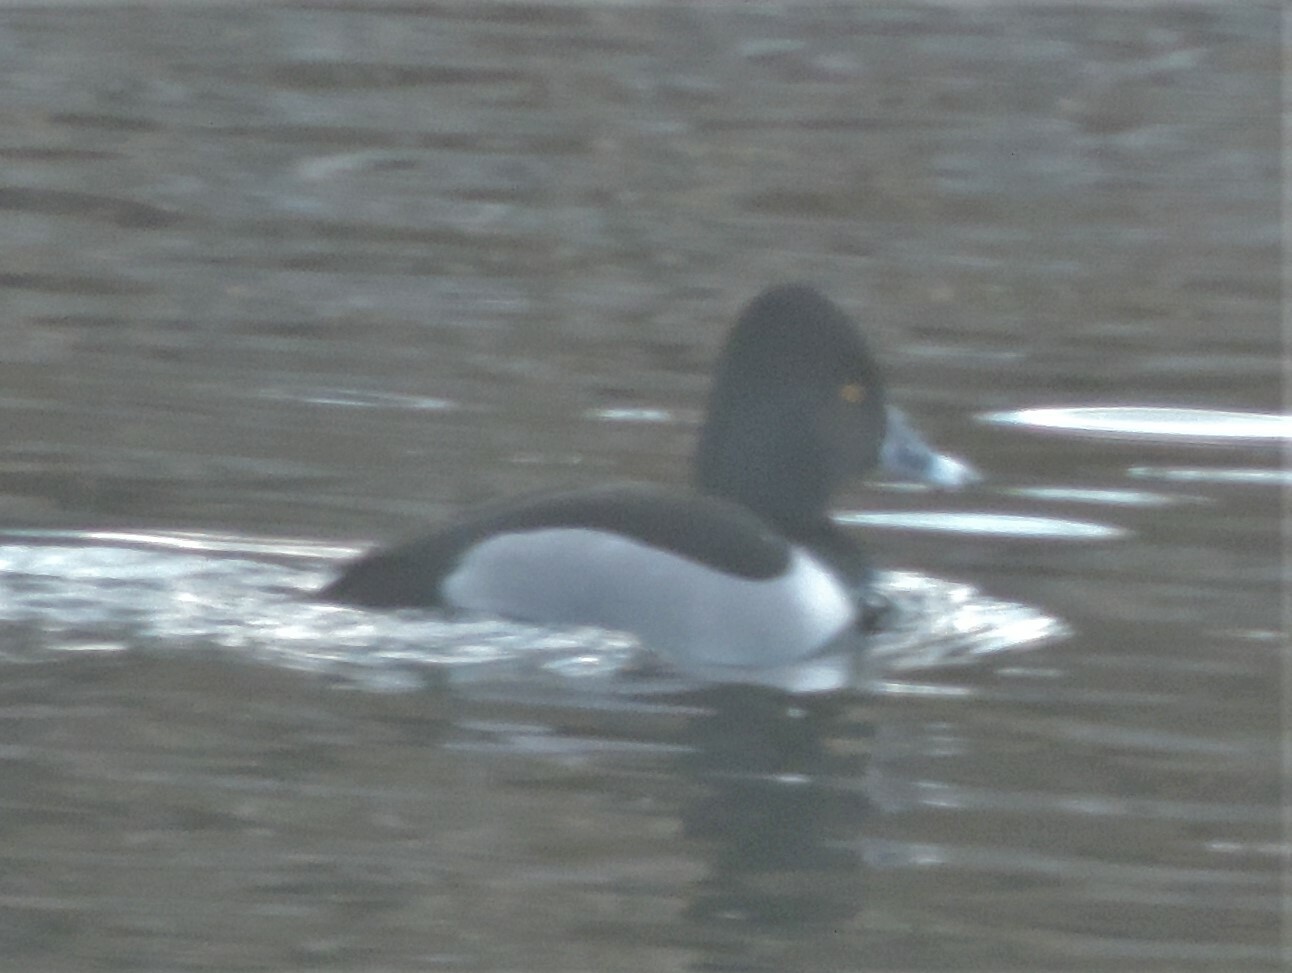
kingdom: Animalia
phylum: Chordata
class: Aves
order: Anseriformes
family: Anatidae
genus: Aythya
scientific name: Aythya collaris
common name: Ring-necked duck
